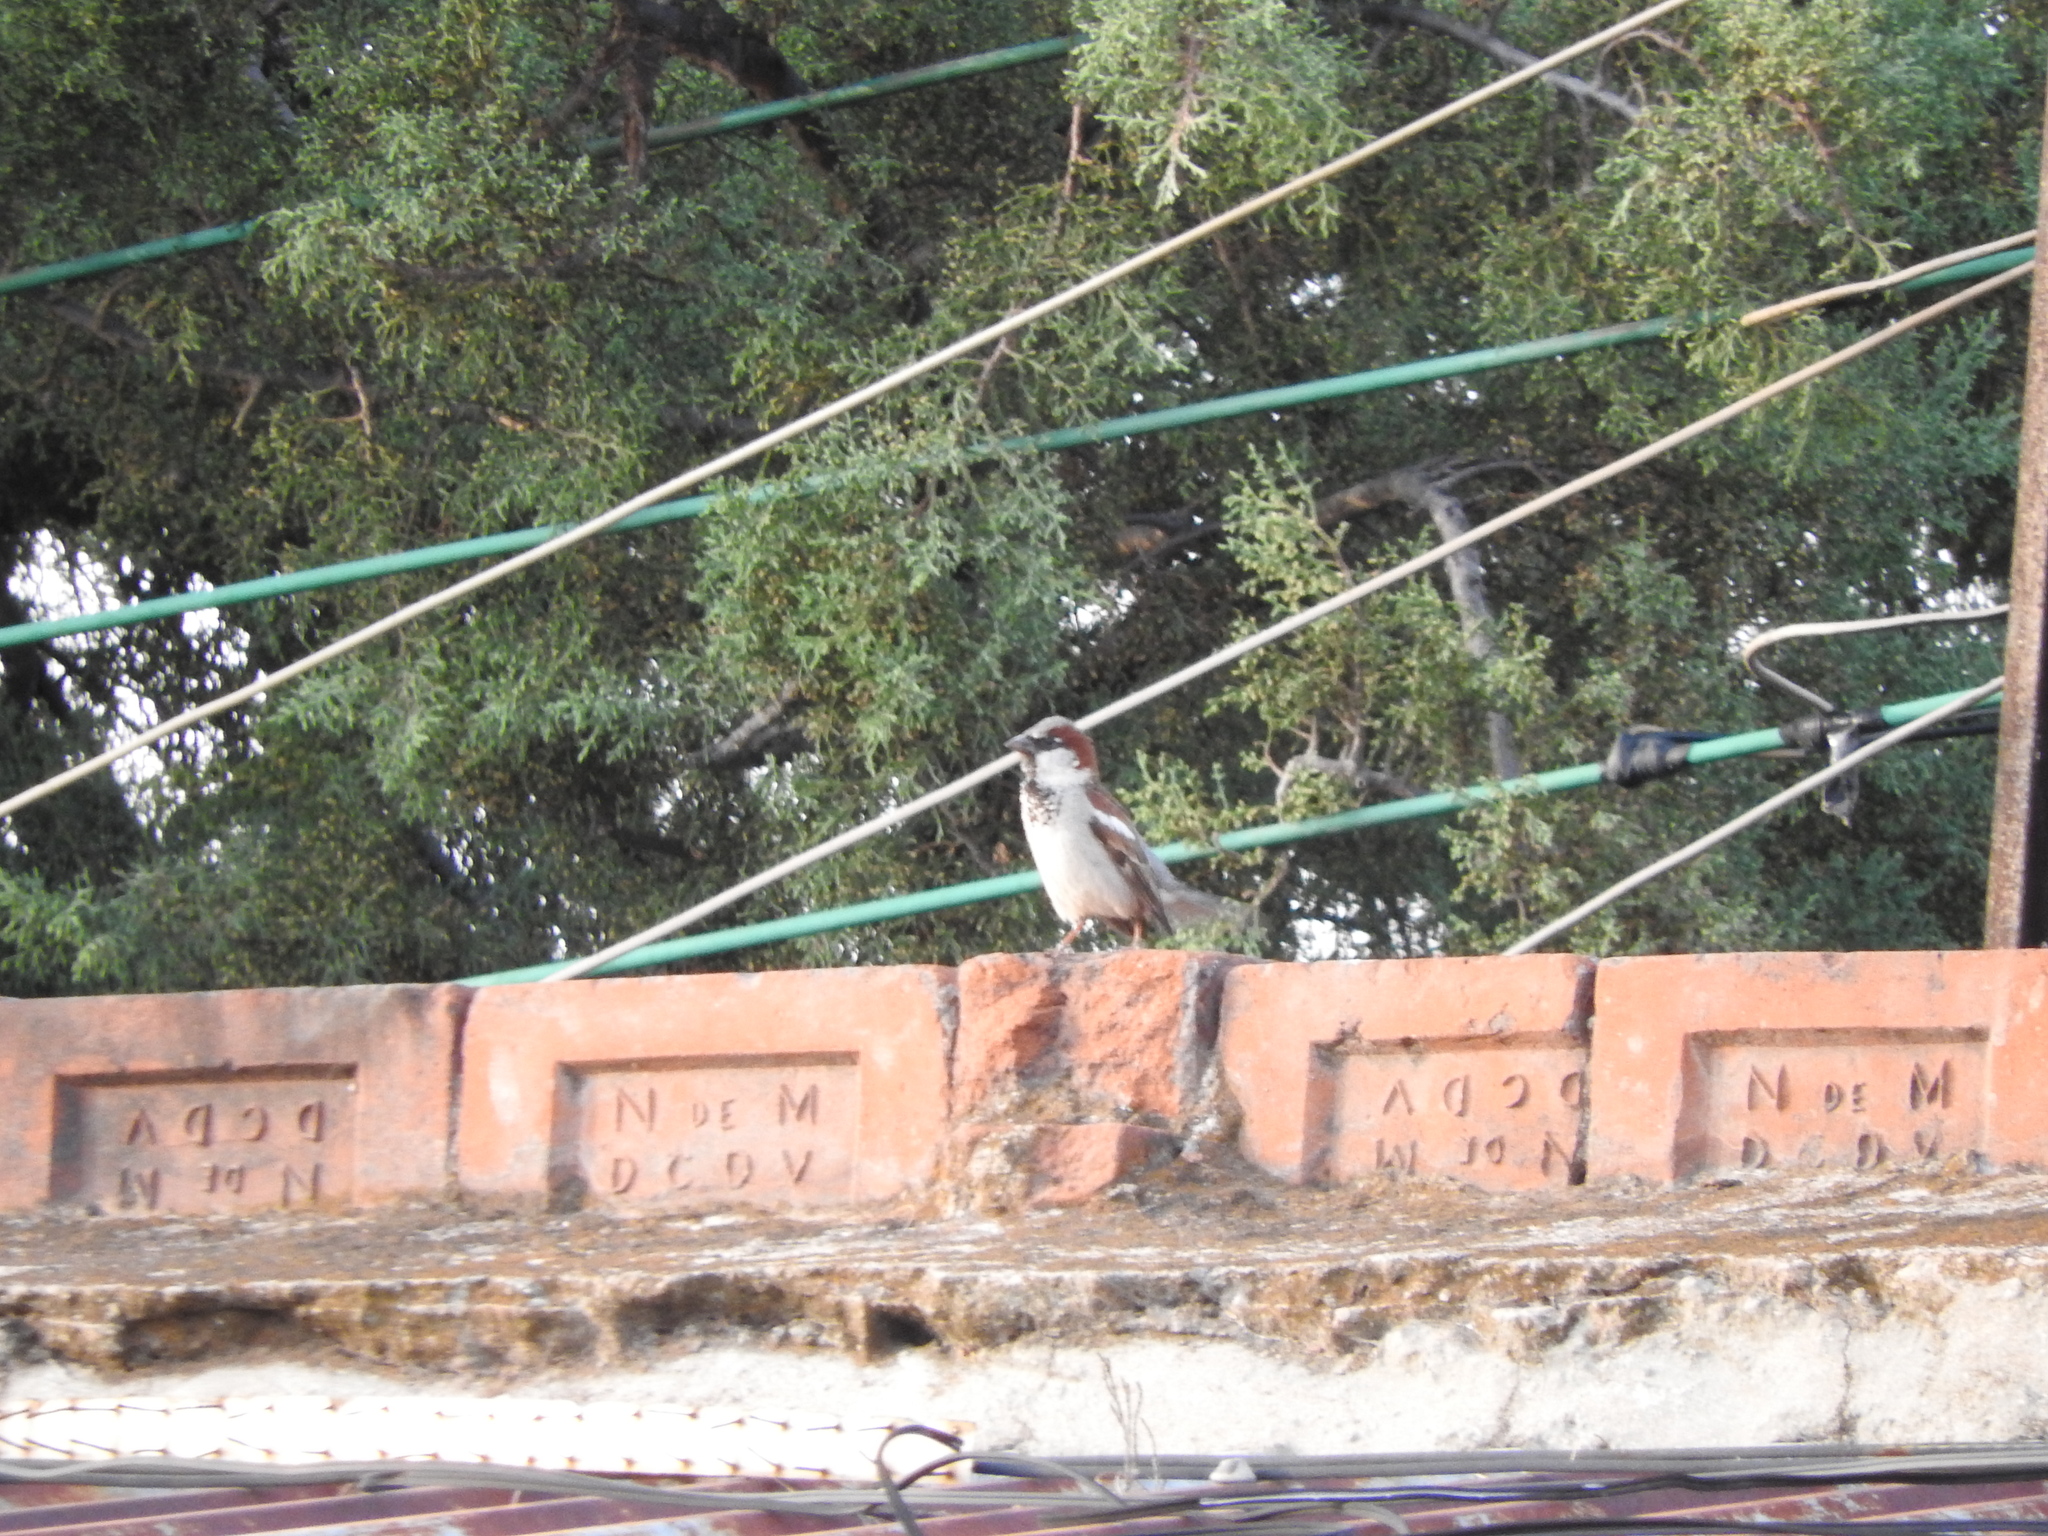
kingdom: Animalia
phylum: Chordata
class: Aves
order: Passeriformes
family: Passeridae
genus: Passer
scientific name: Passer domesticus
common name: House sparrow
